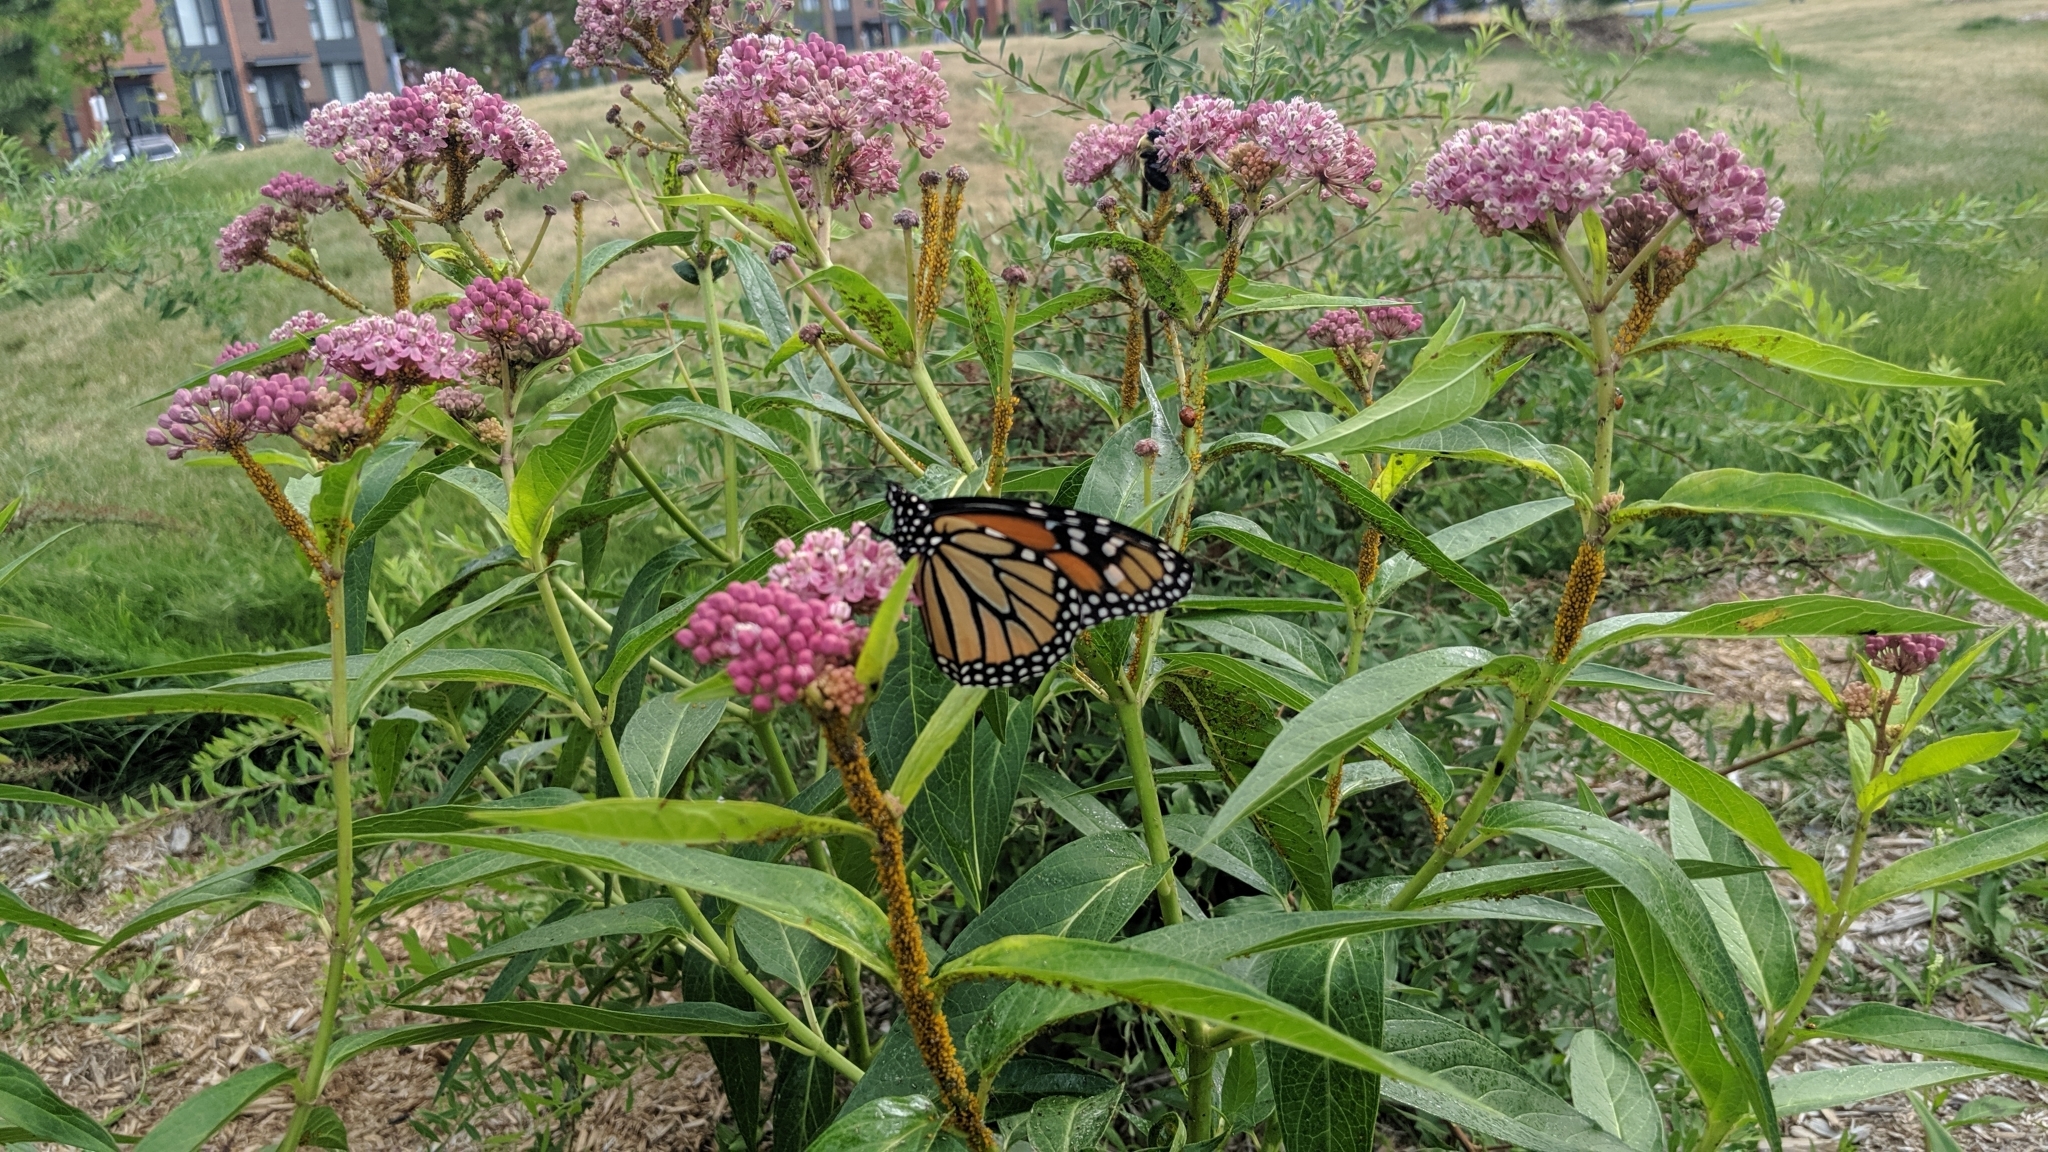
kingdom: Animalia
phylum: Arthropoda
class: Insecta
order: Lepidoptera
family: Nymphalidae
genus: Danaus
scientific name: Danaus plexippus
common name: Monarch
